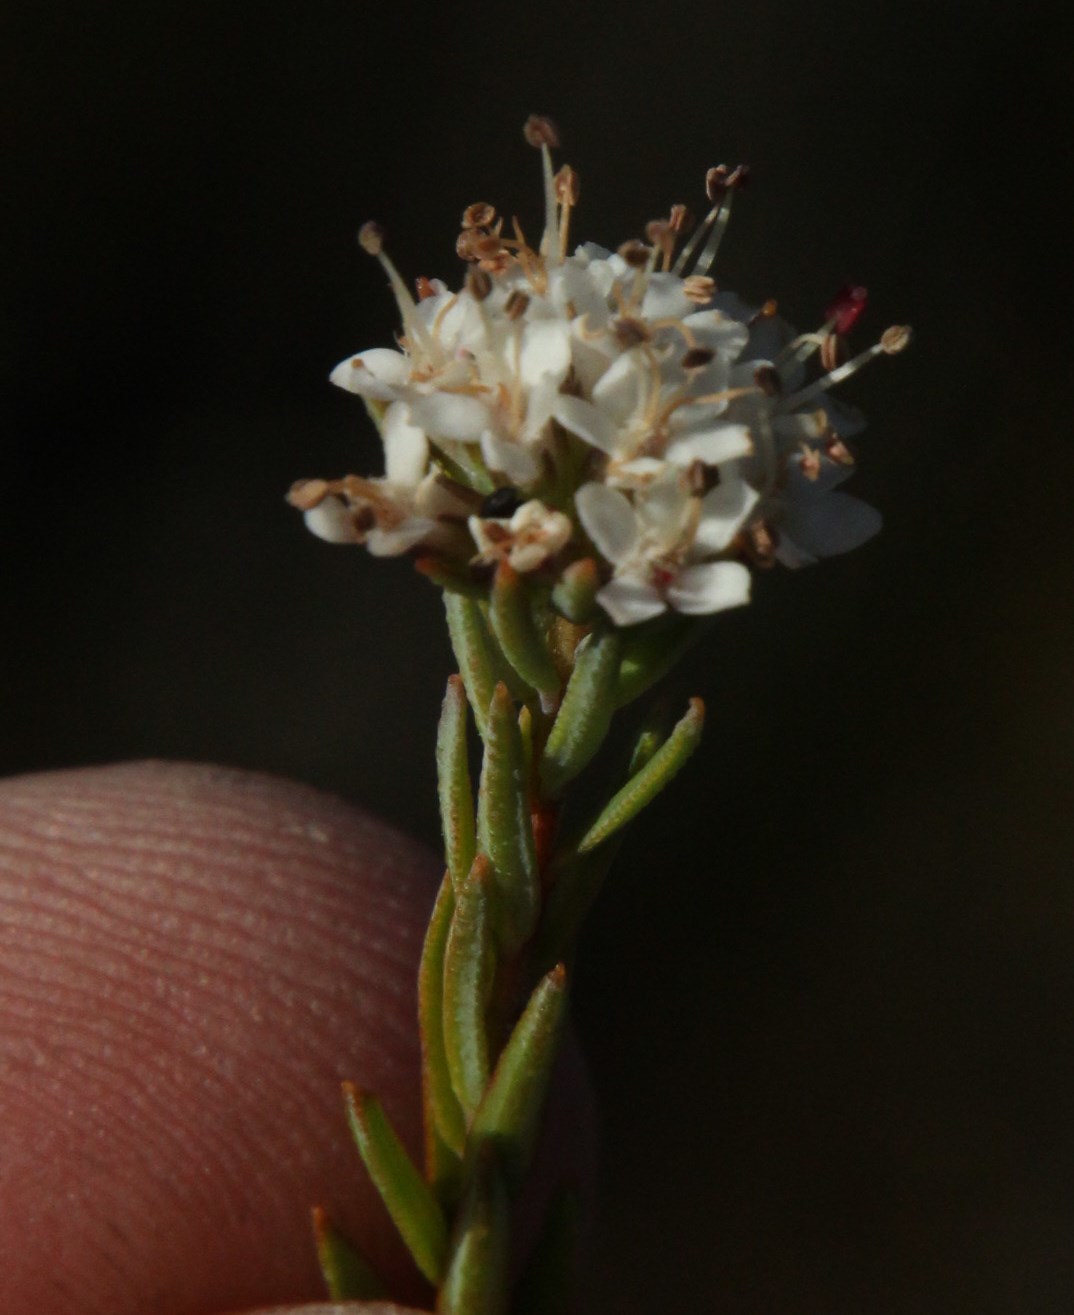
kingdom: Plantae
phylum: Tracheophyta
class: Magnoliopsida
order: Sapindales
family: Rutaceae
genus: Macrostylis
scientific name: Macrostylis villosa
